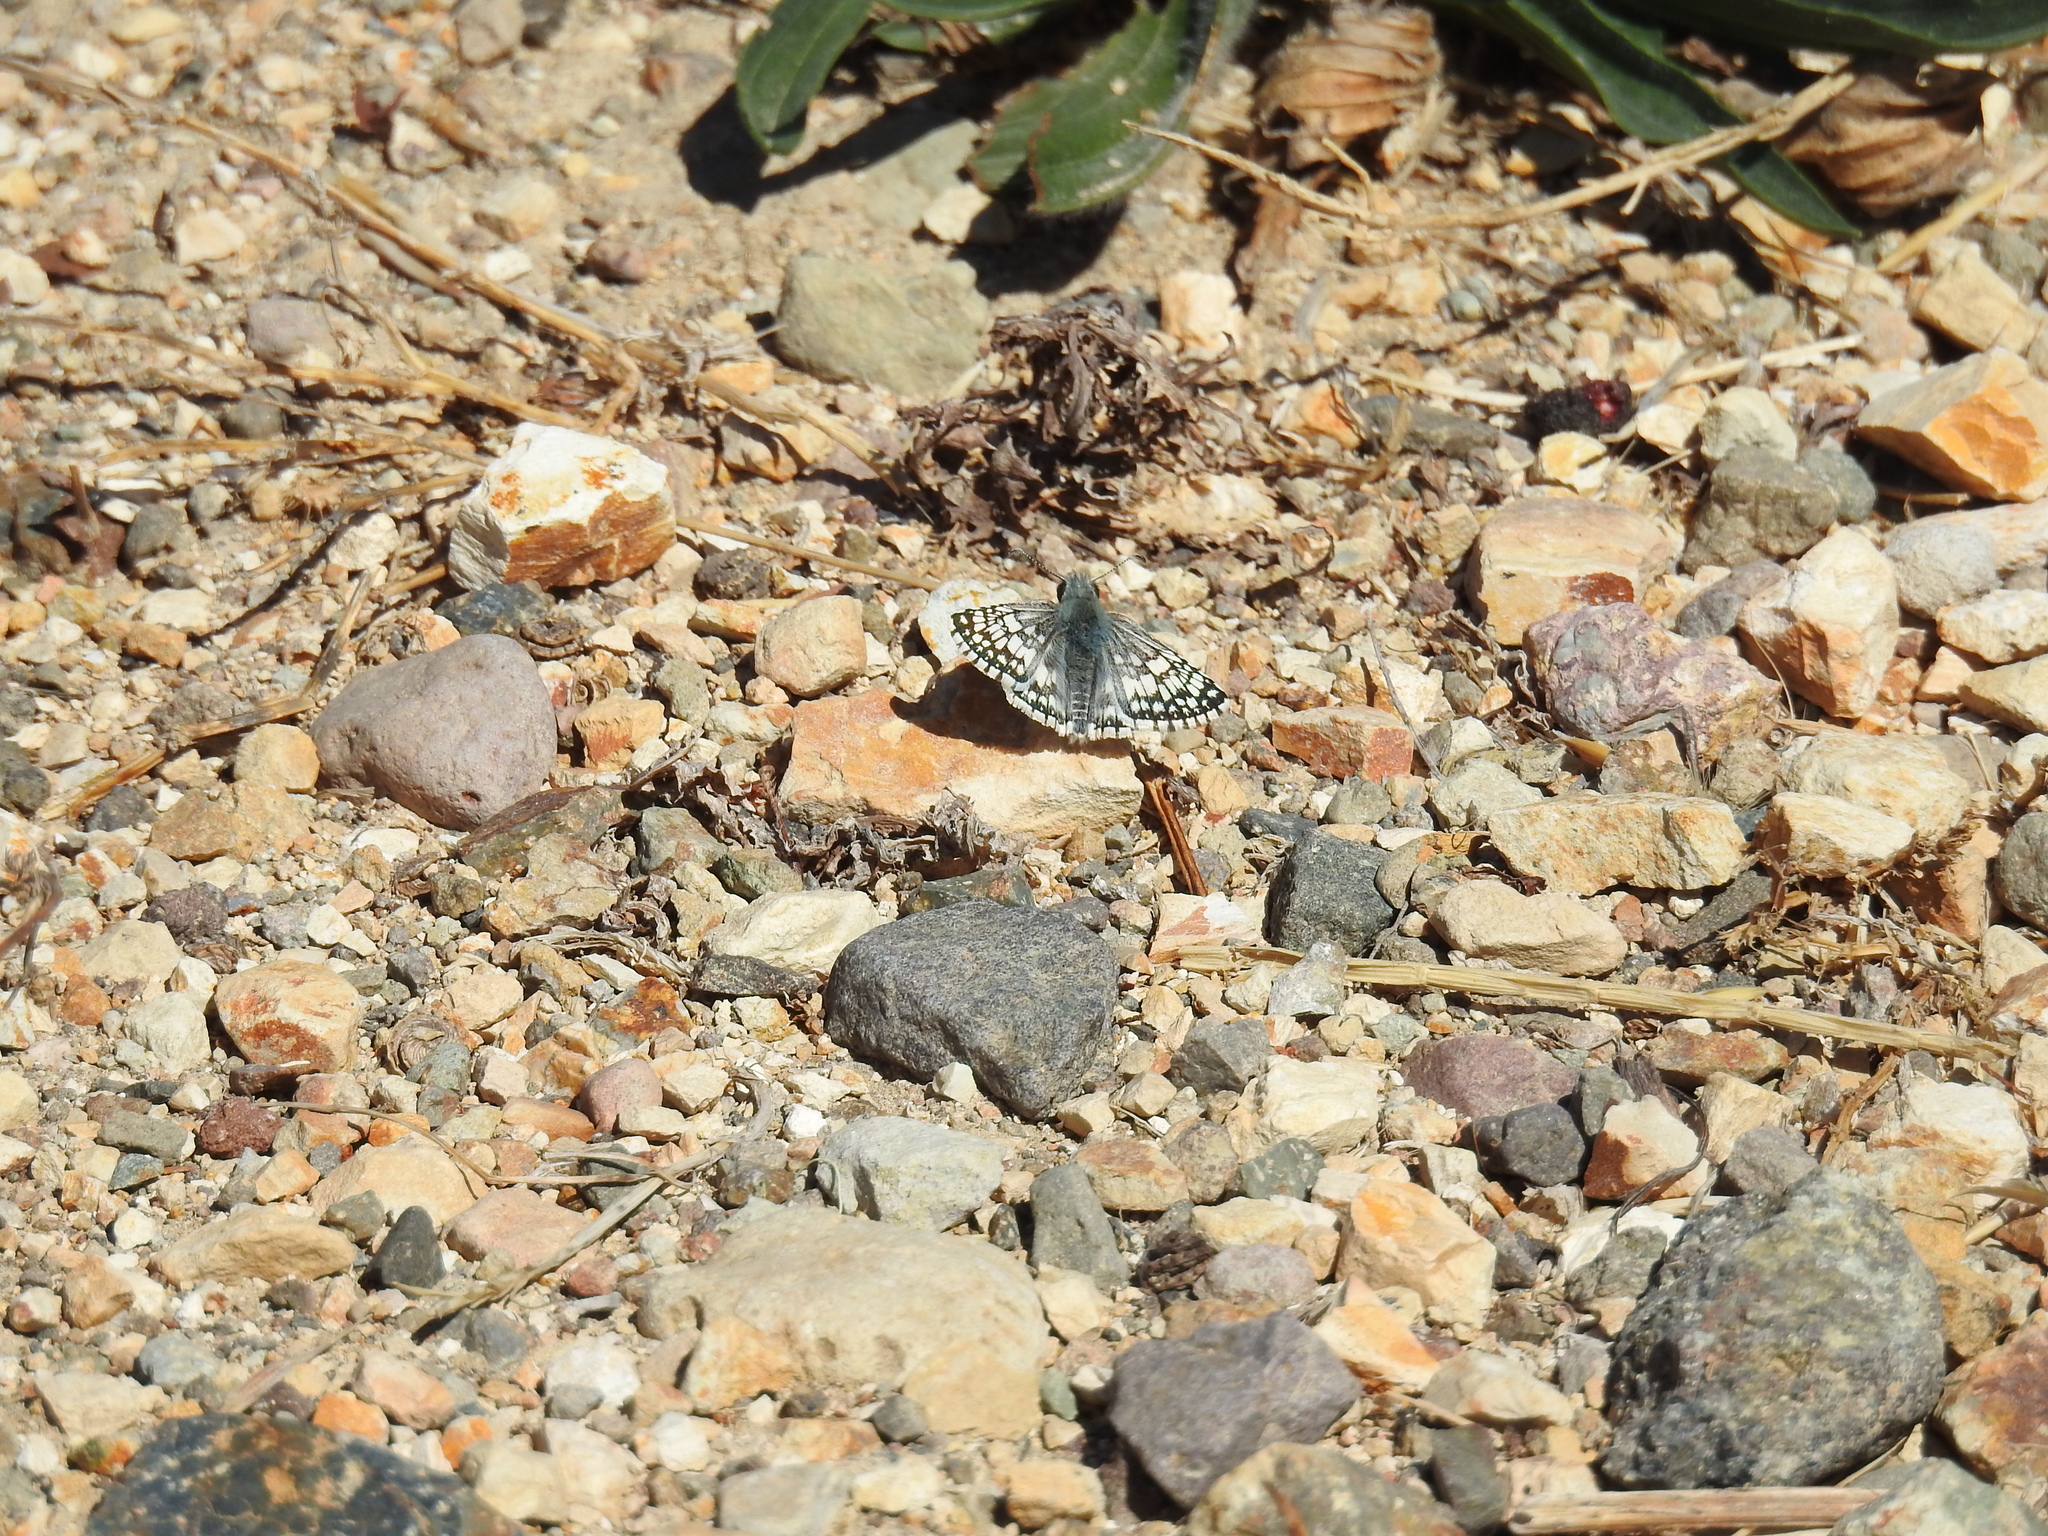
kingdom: Animalia
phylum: Arthropoda
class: Insecta
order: Lepidoptera
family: Hesperiidae
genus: Burnsius
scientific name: Burnsius albezens
